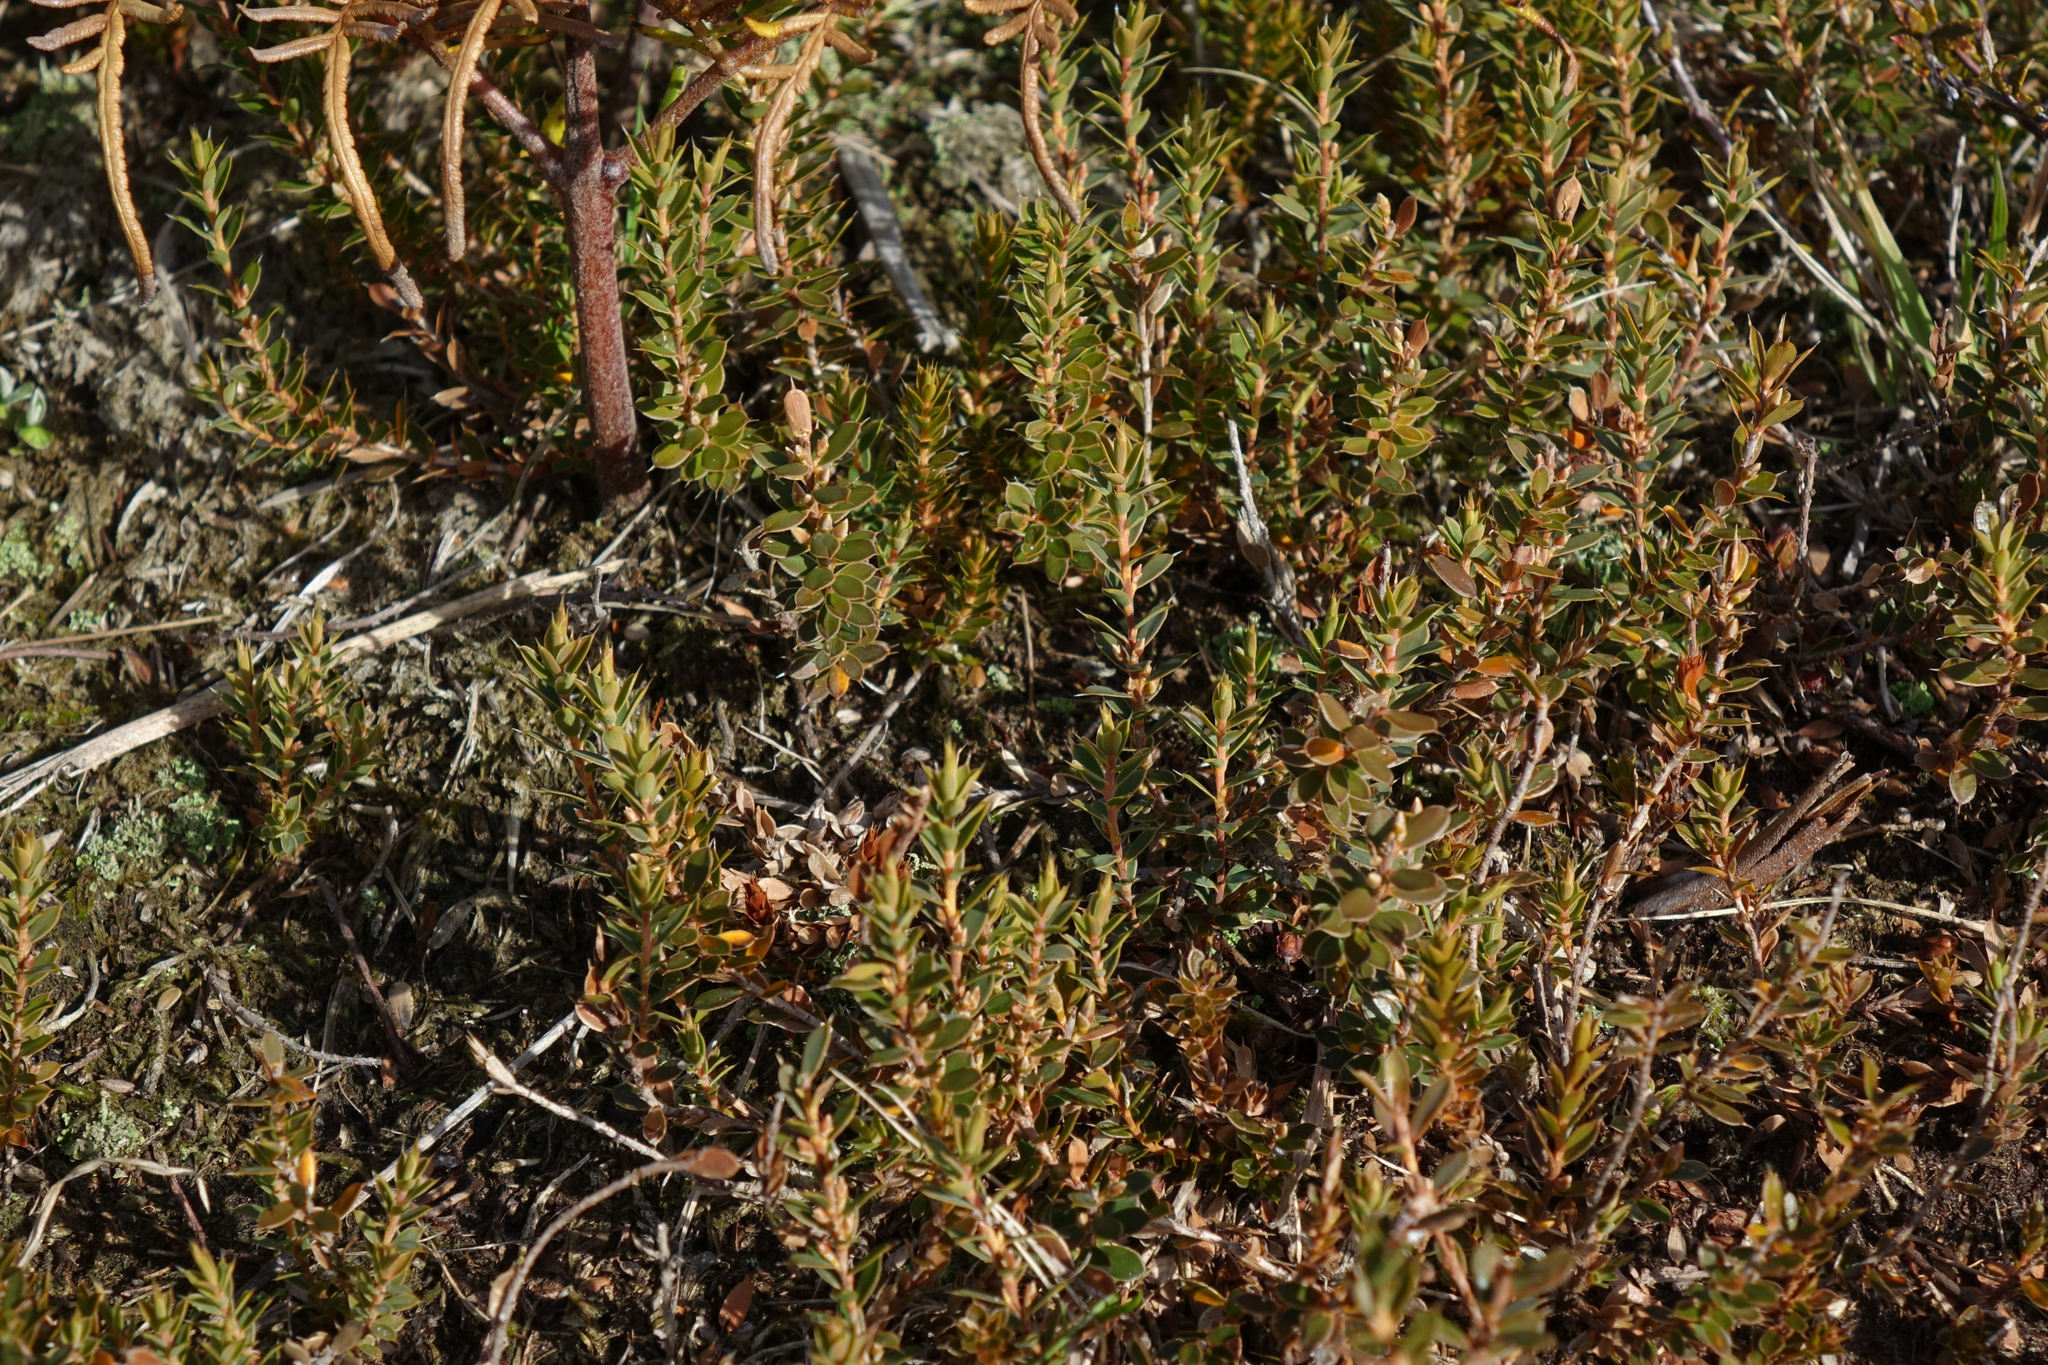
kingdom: Plantae
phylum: Tracheophyta
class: Magnoliopsida
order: Ericales
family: Ericaceae
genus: Styphelia
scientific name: Styphelia nesophila
